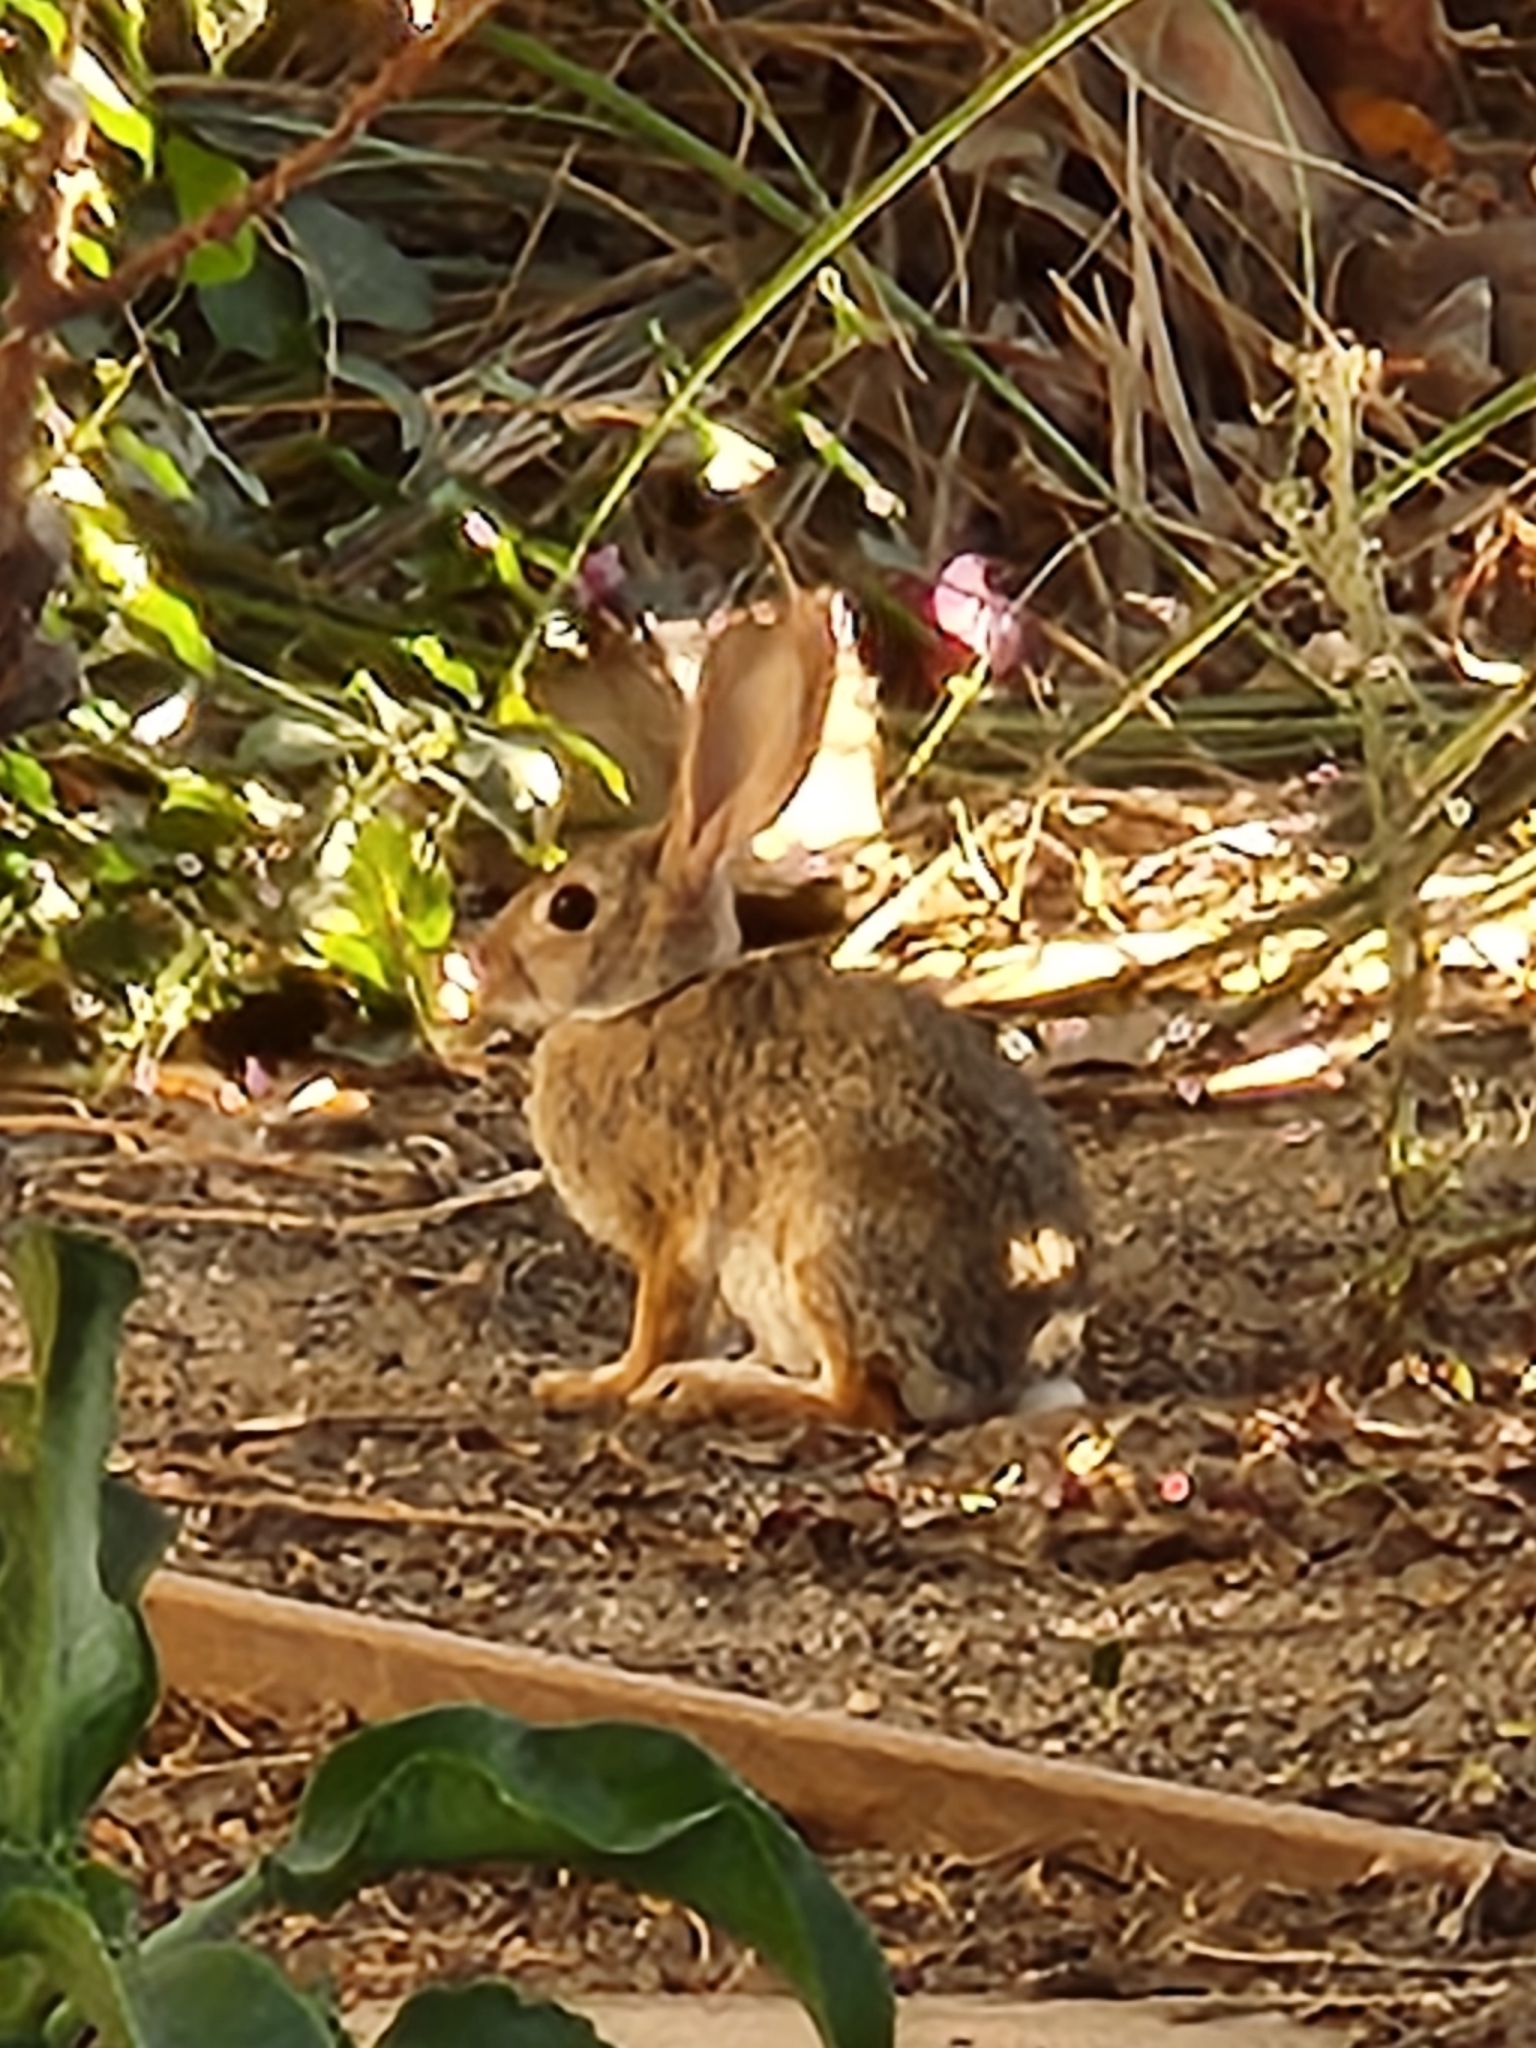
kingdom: Animalia
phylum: Chordata
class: Mammalia
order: Lagomorpha
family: Leporidae
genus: Sylvilagus
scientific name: Sylvilagus audubonii
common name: Desert cottontail
